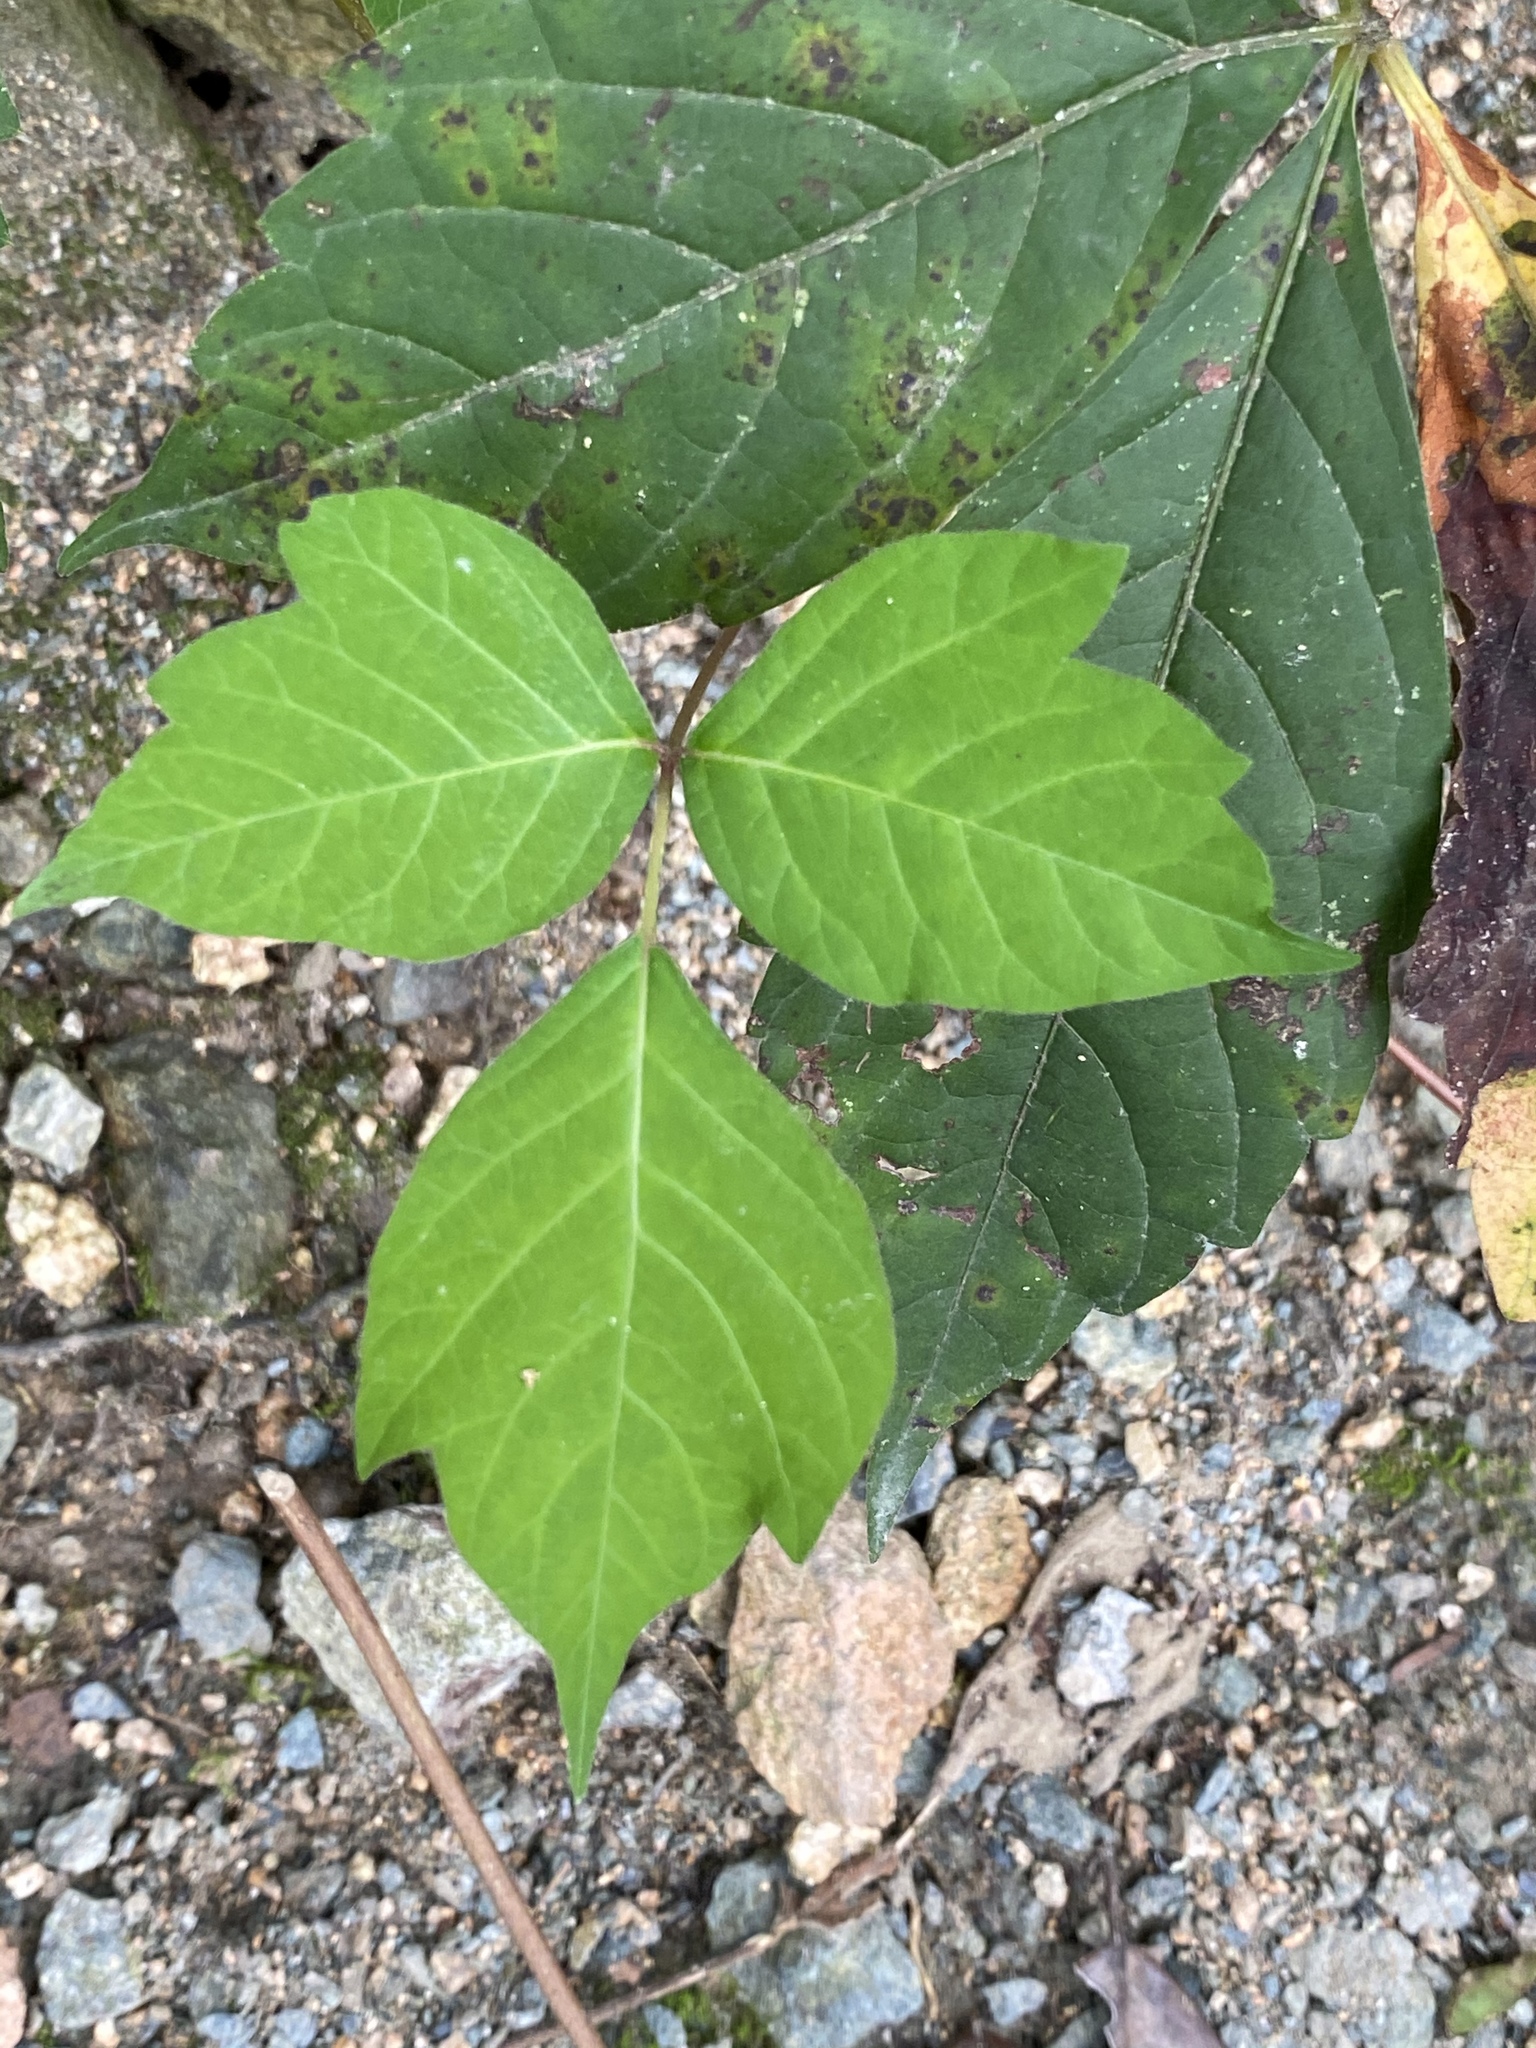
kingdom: Plantae
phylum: Tracheophyta
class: Magnoliopsida
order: Sapindales
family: Anacardiaceae
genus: Toxicodendron
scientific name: Toxicodendron radicans
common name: Poison ivy
